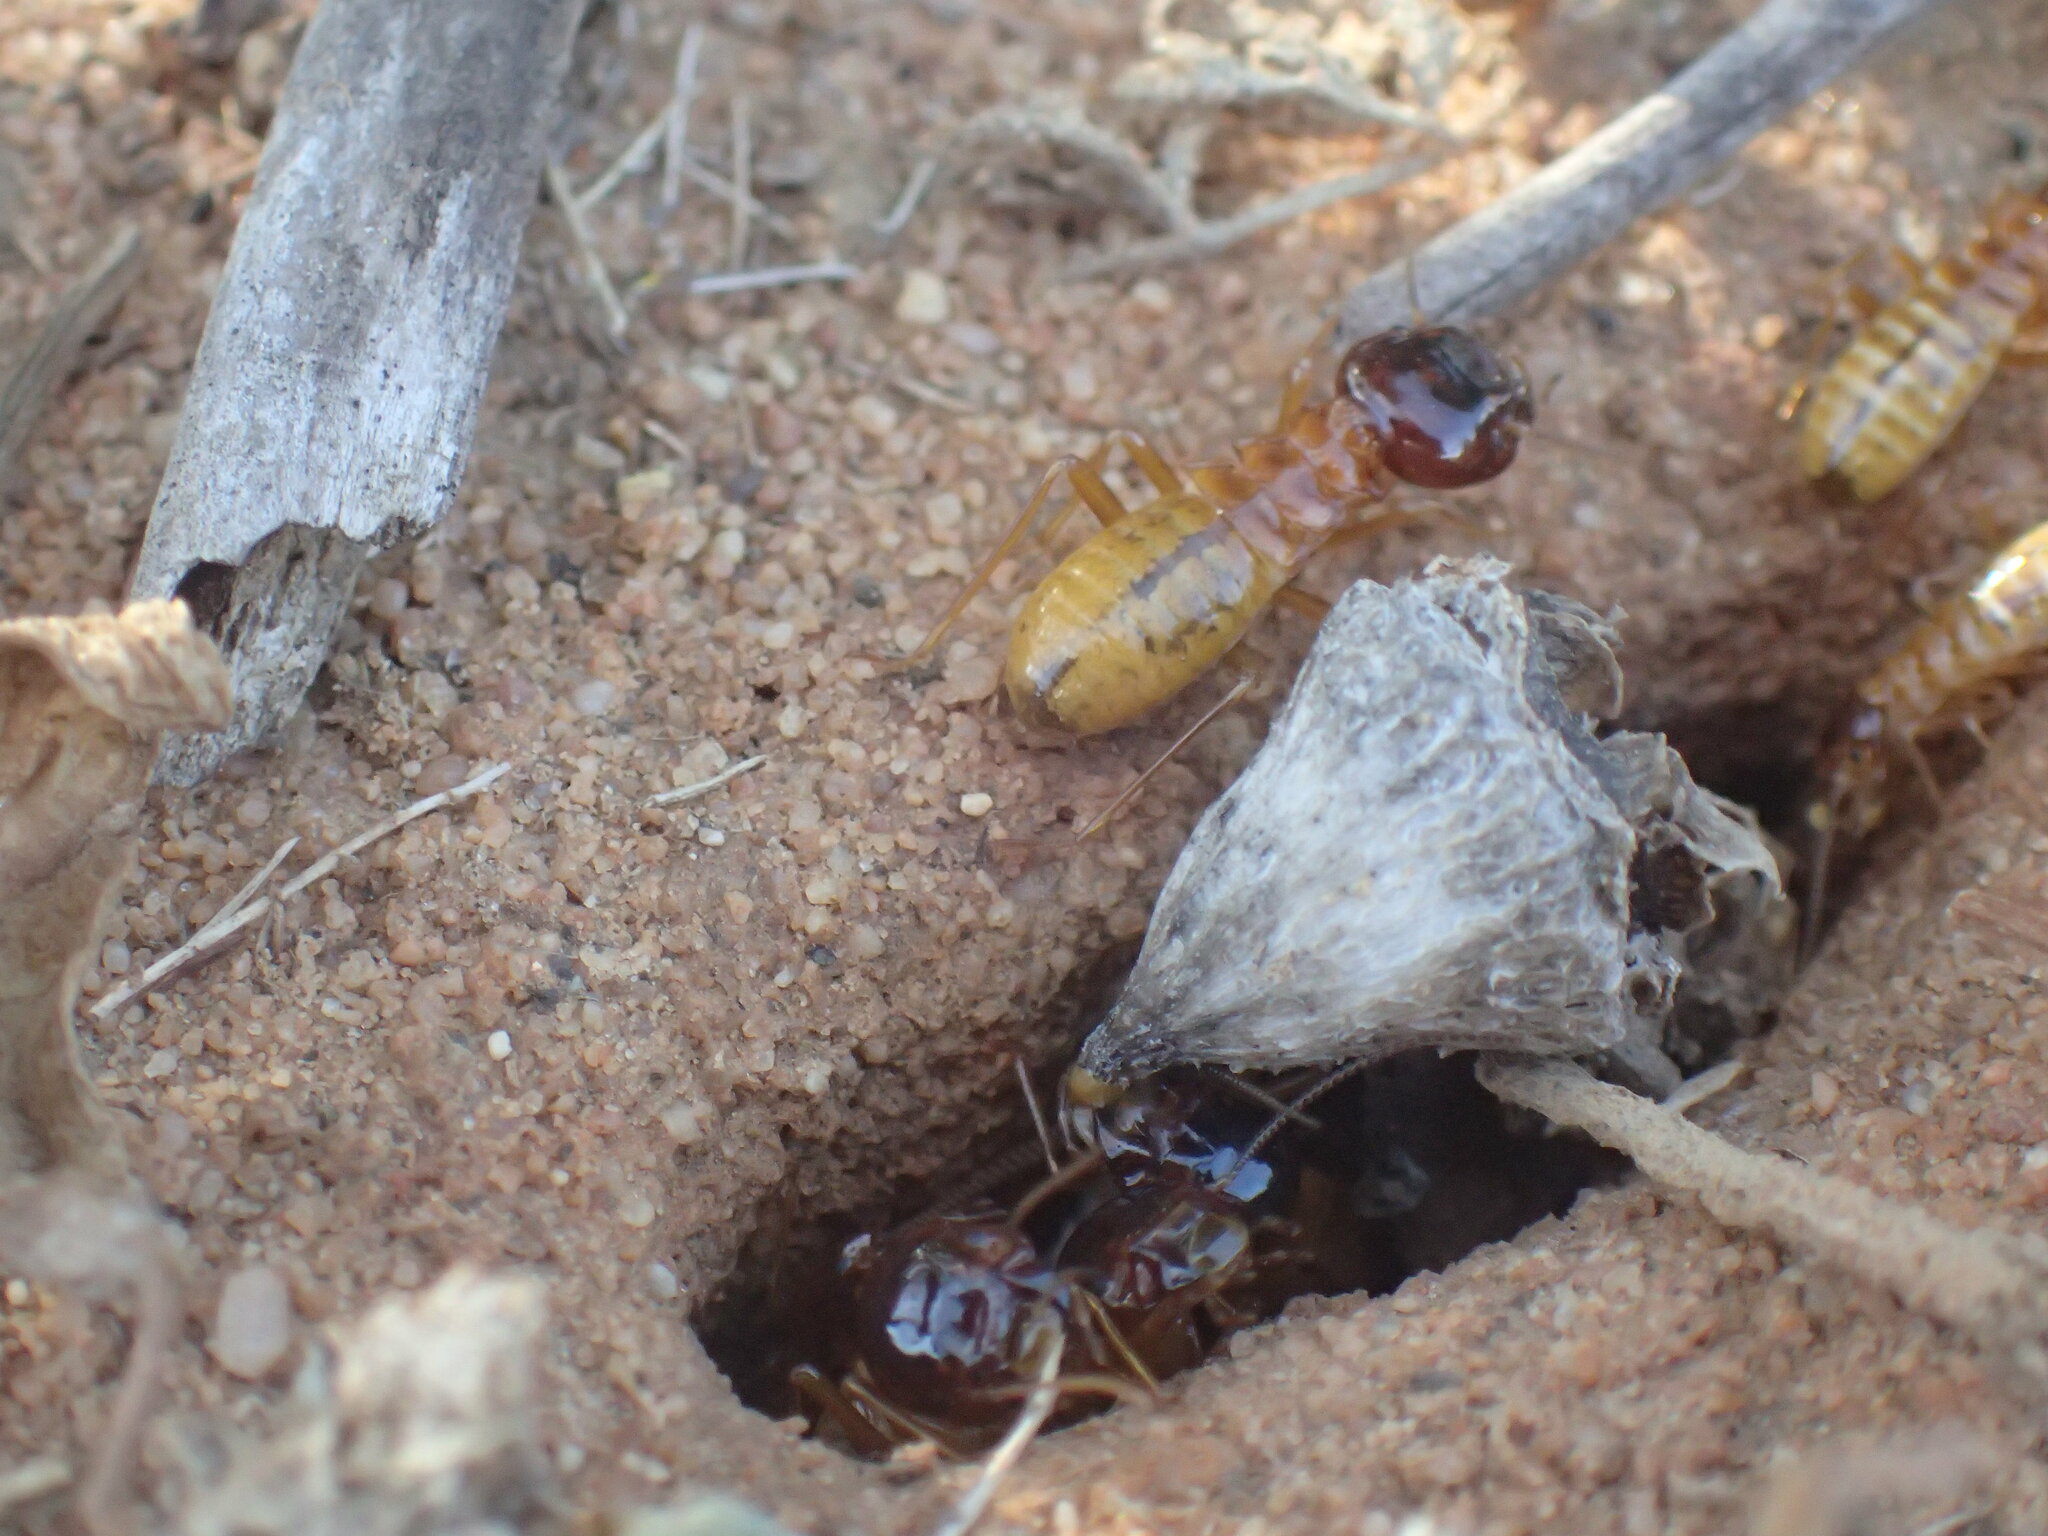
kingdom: Animalia
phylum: Arthropoda
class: Insecta
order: Blattodea
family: Hodotermitidae
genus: Microhodotermes
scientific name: Microhodotermes viator
